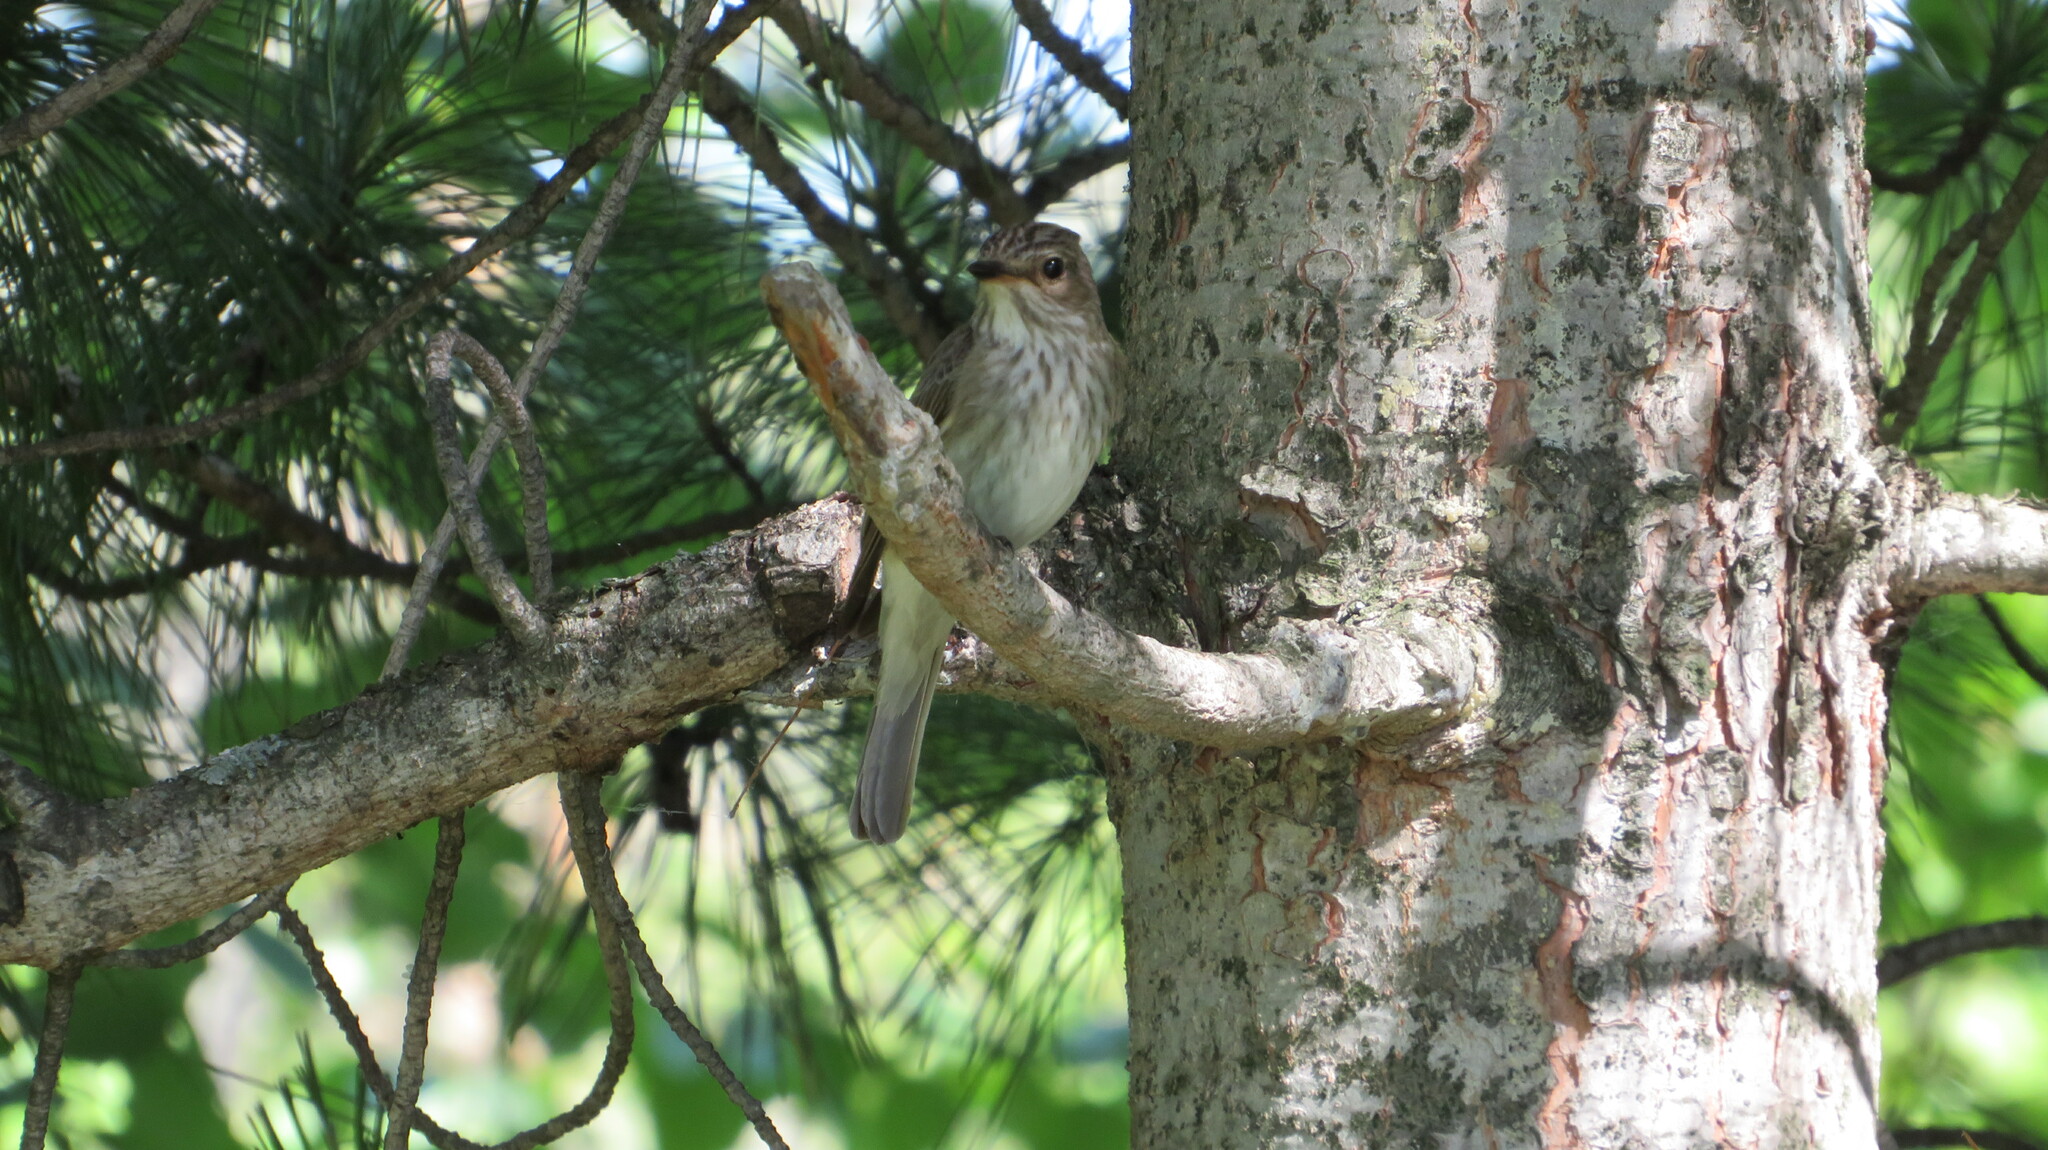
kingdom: Animalia
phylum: Chordata
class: Aves
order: Passeriformes
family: Muscicapidae
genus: Muscicapa
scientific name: Muscicapa striata
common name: Spotted flycatcher
